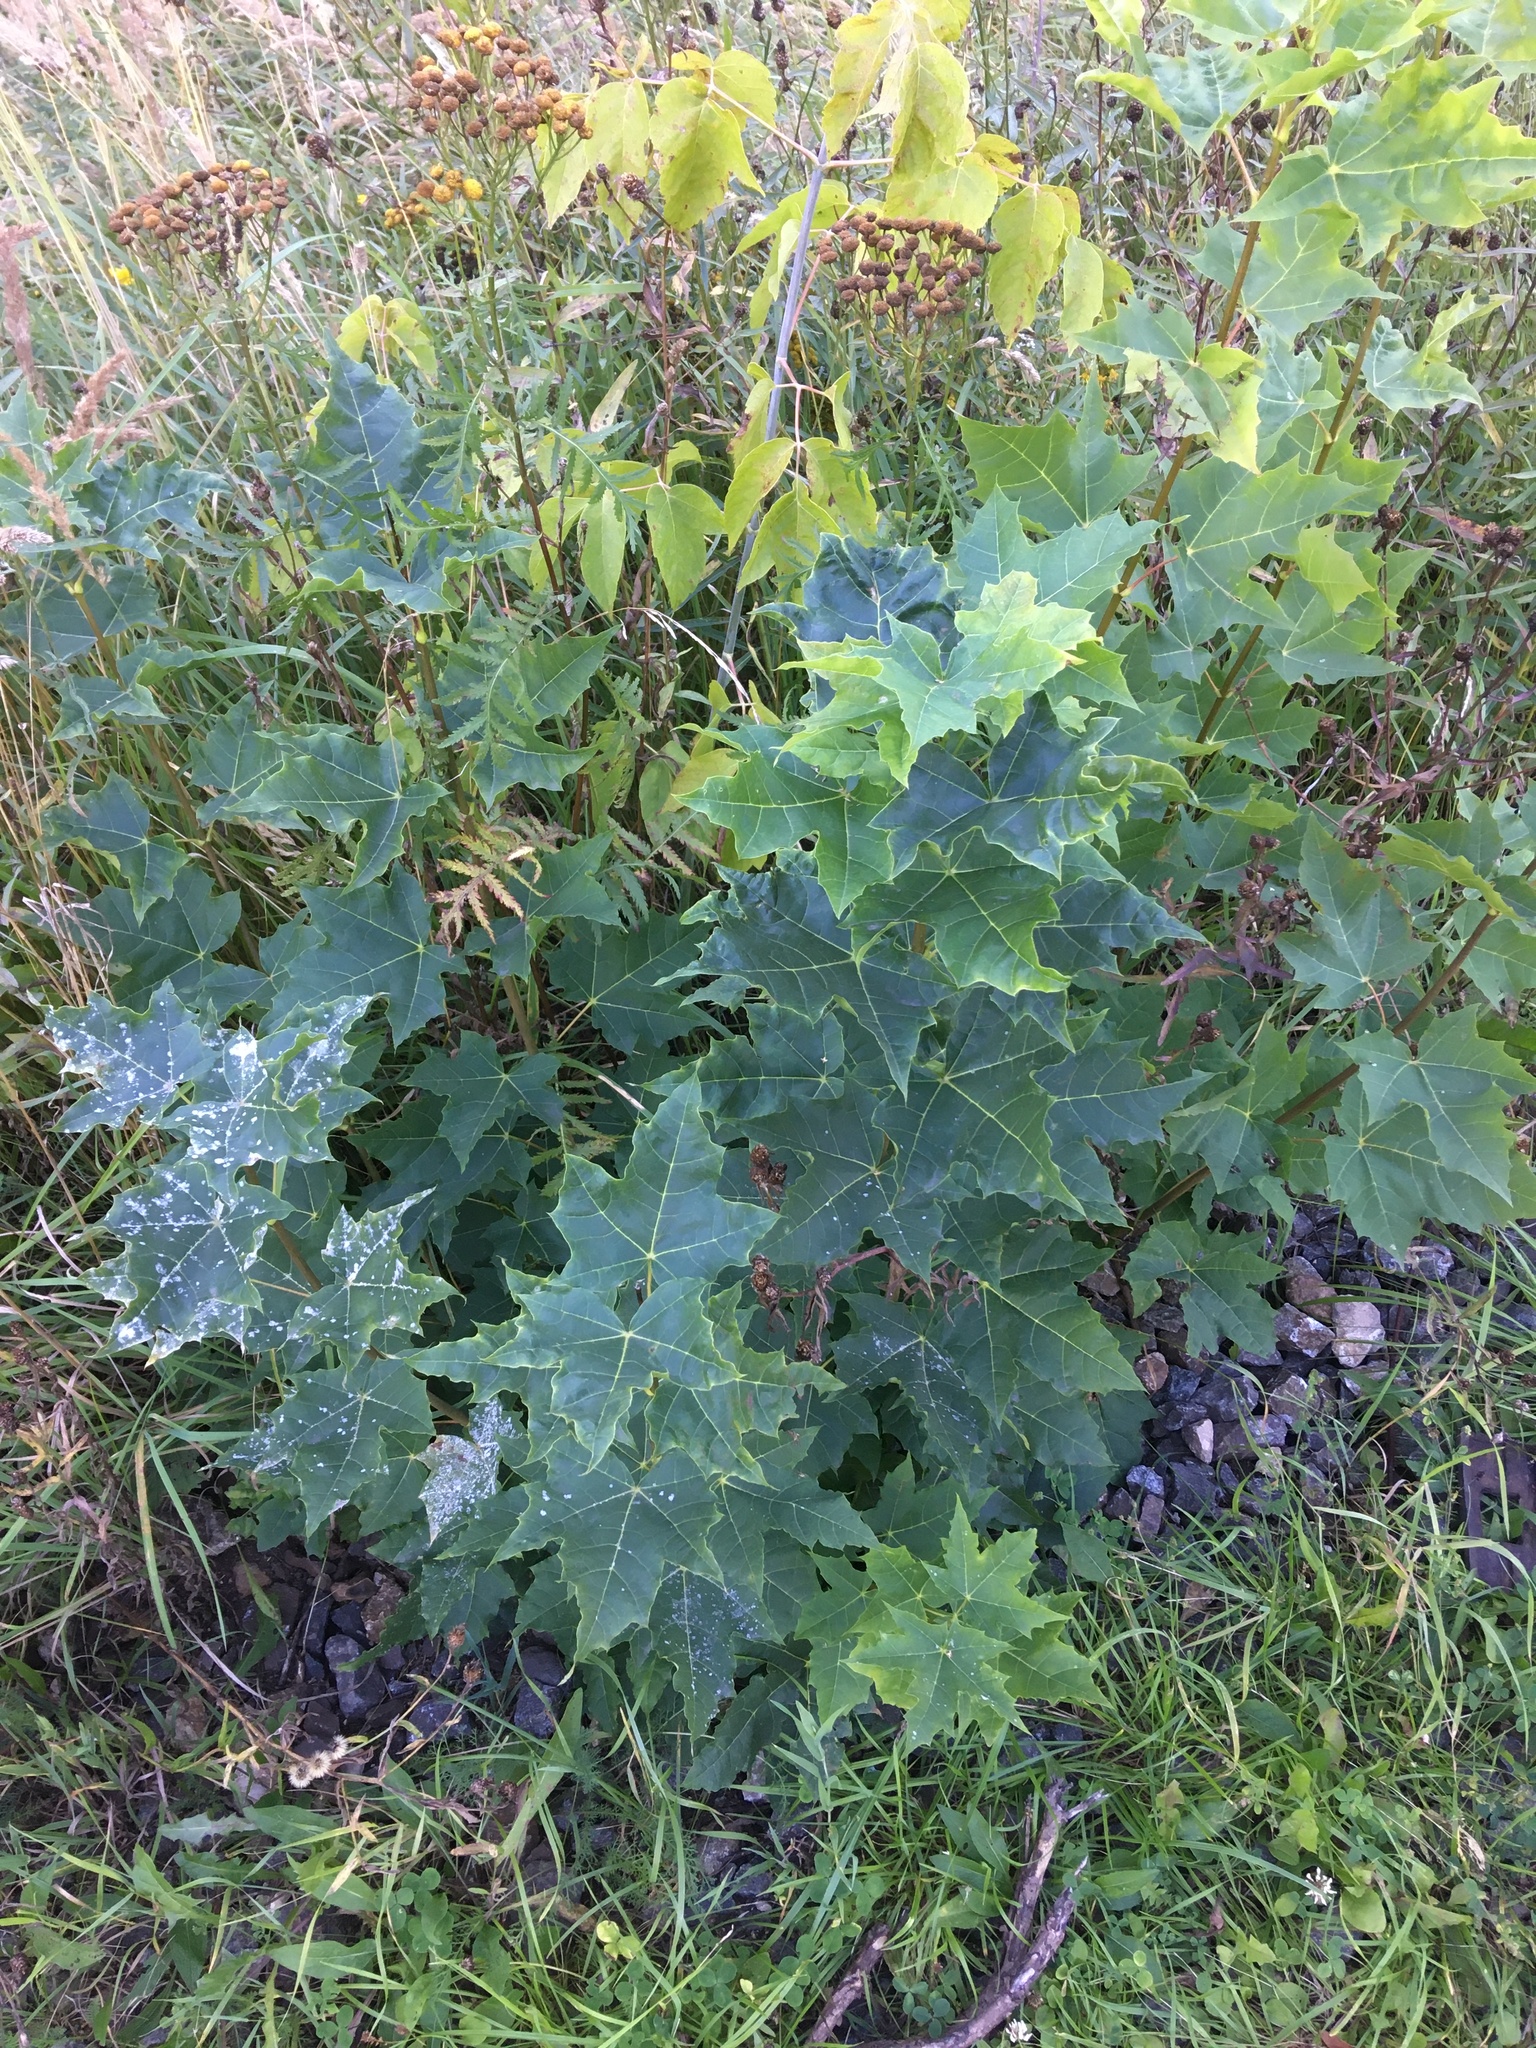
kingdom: Plantae
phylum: Tracheophyta
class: Magnoliopsida
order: Sapindales
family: Sapindaceae
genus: Acer
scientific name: Acer platanoides
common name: Norway maple
